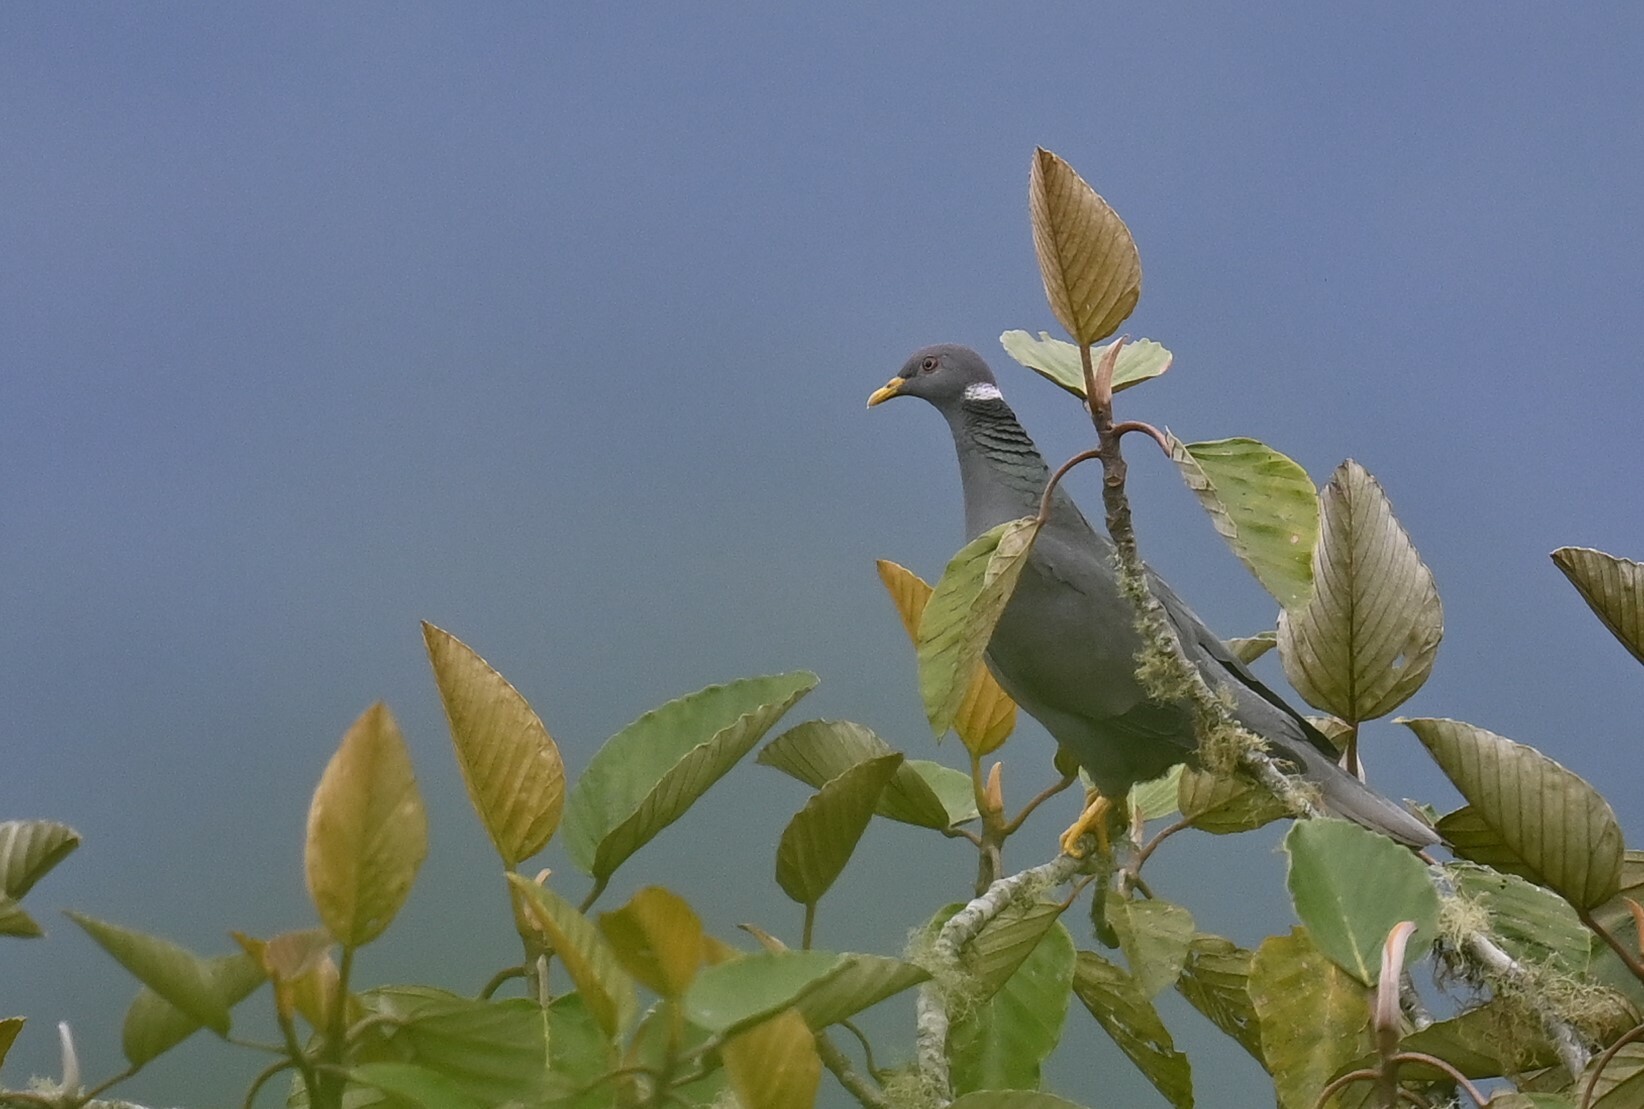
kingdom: Animalia
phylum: Chordata
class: Aves
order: Columbiformes
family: Columbidae
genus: Patagioenas
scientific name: Patagioenas fasciata
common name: Band-tailed pigeon
